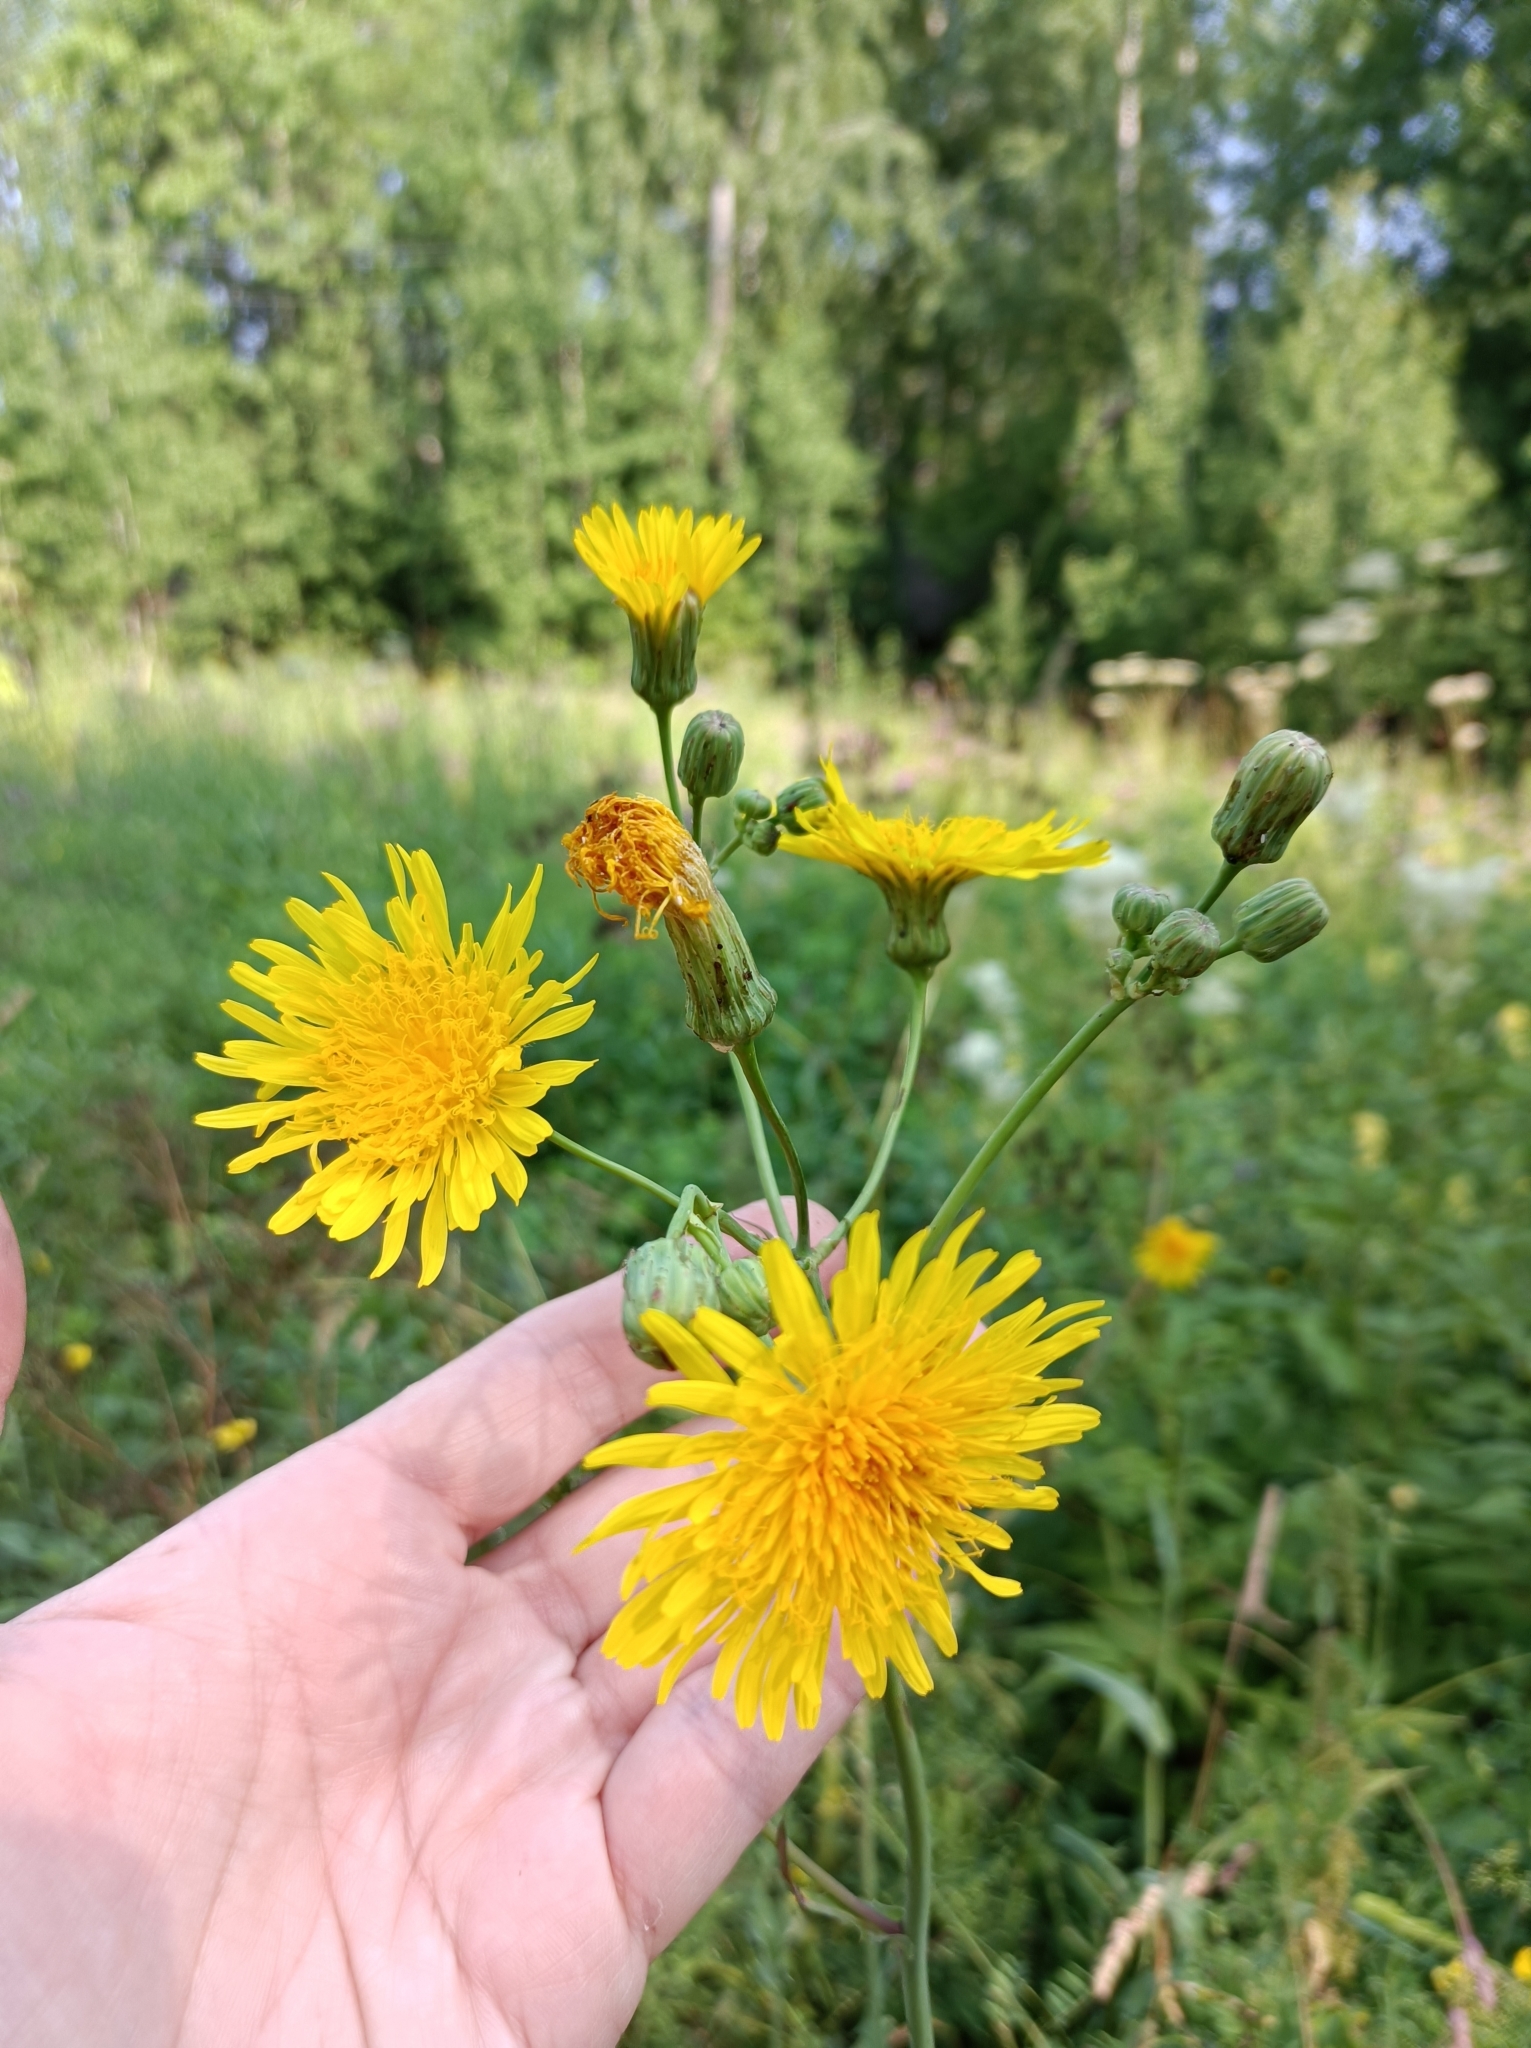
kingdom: Plantae
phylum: Tracheophyta
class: Magnoliopsida
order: Asterales
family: Asteraceae
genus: Sonchus
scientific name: Sonchus arvensis
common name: Perennial sow-thistle
